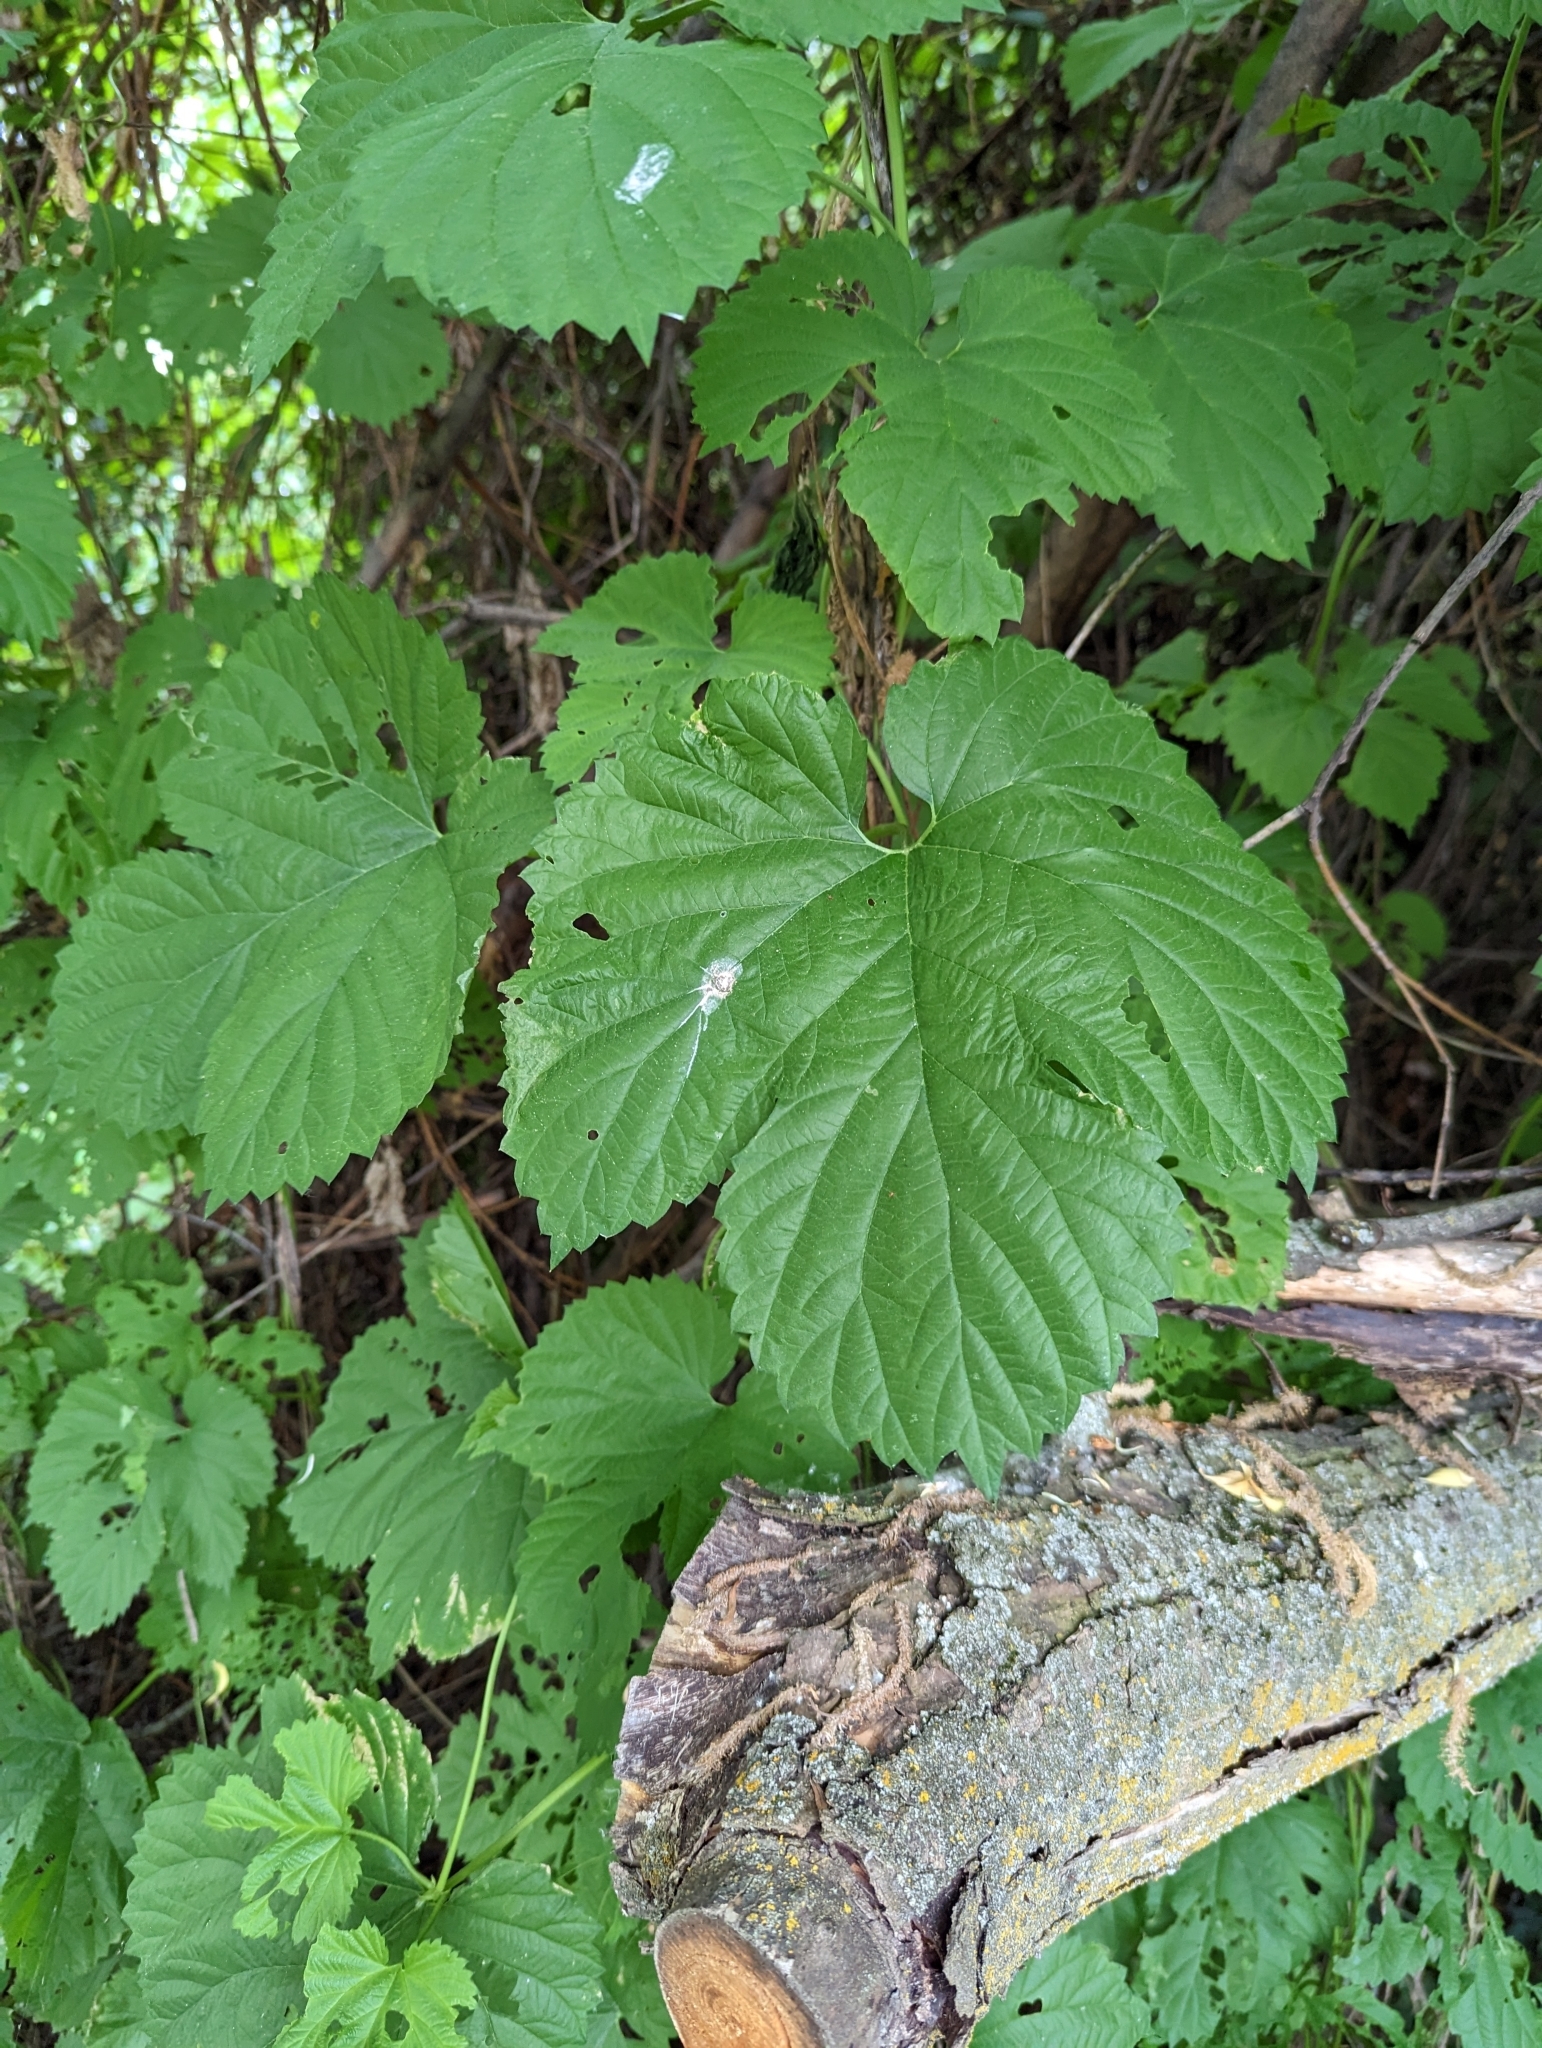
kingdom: Plantae
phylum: Tracheophyta
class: Magnoliopsida
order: Rosales
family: Cannabaceae
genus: Humulus
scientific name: Humulus lupulus
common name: Hop
